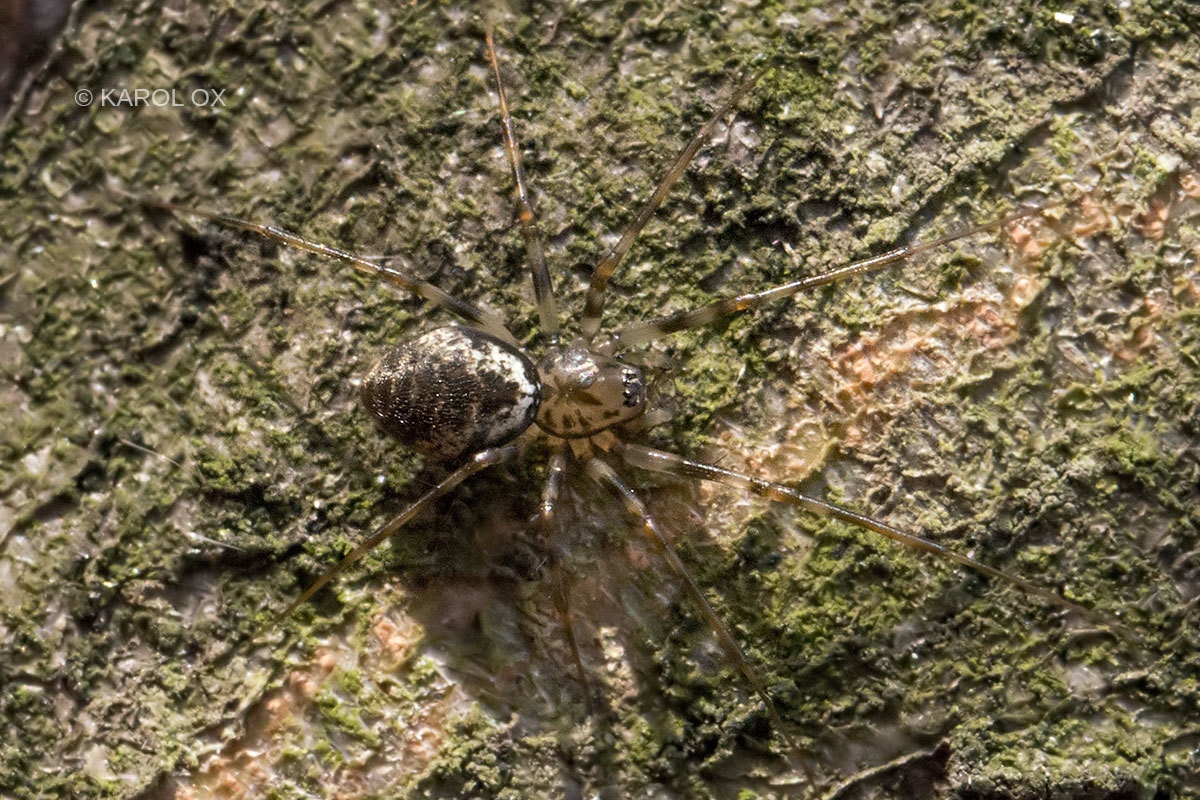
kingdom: Animalia
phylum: Arthropoda
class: Arachnida
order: Araneae
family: Linyphiidae
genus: Drapetisca
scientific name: Drapetisca socialis
